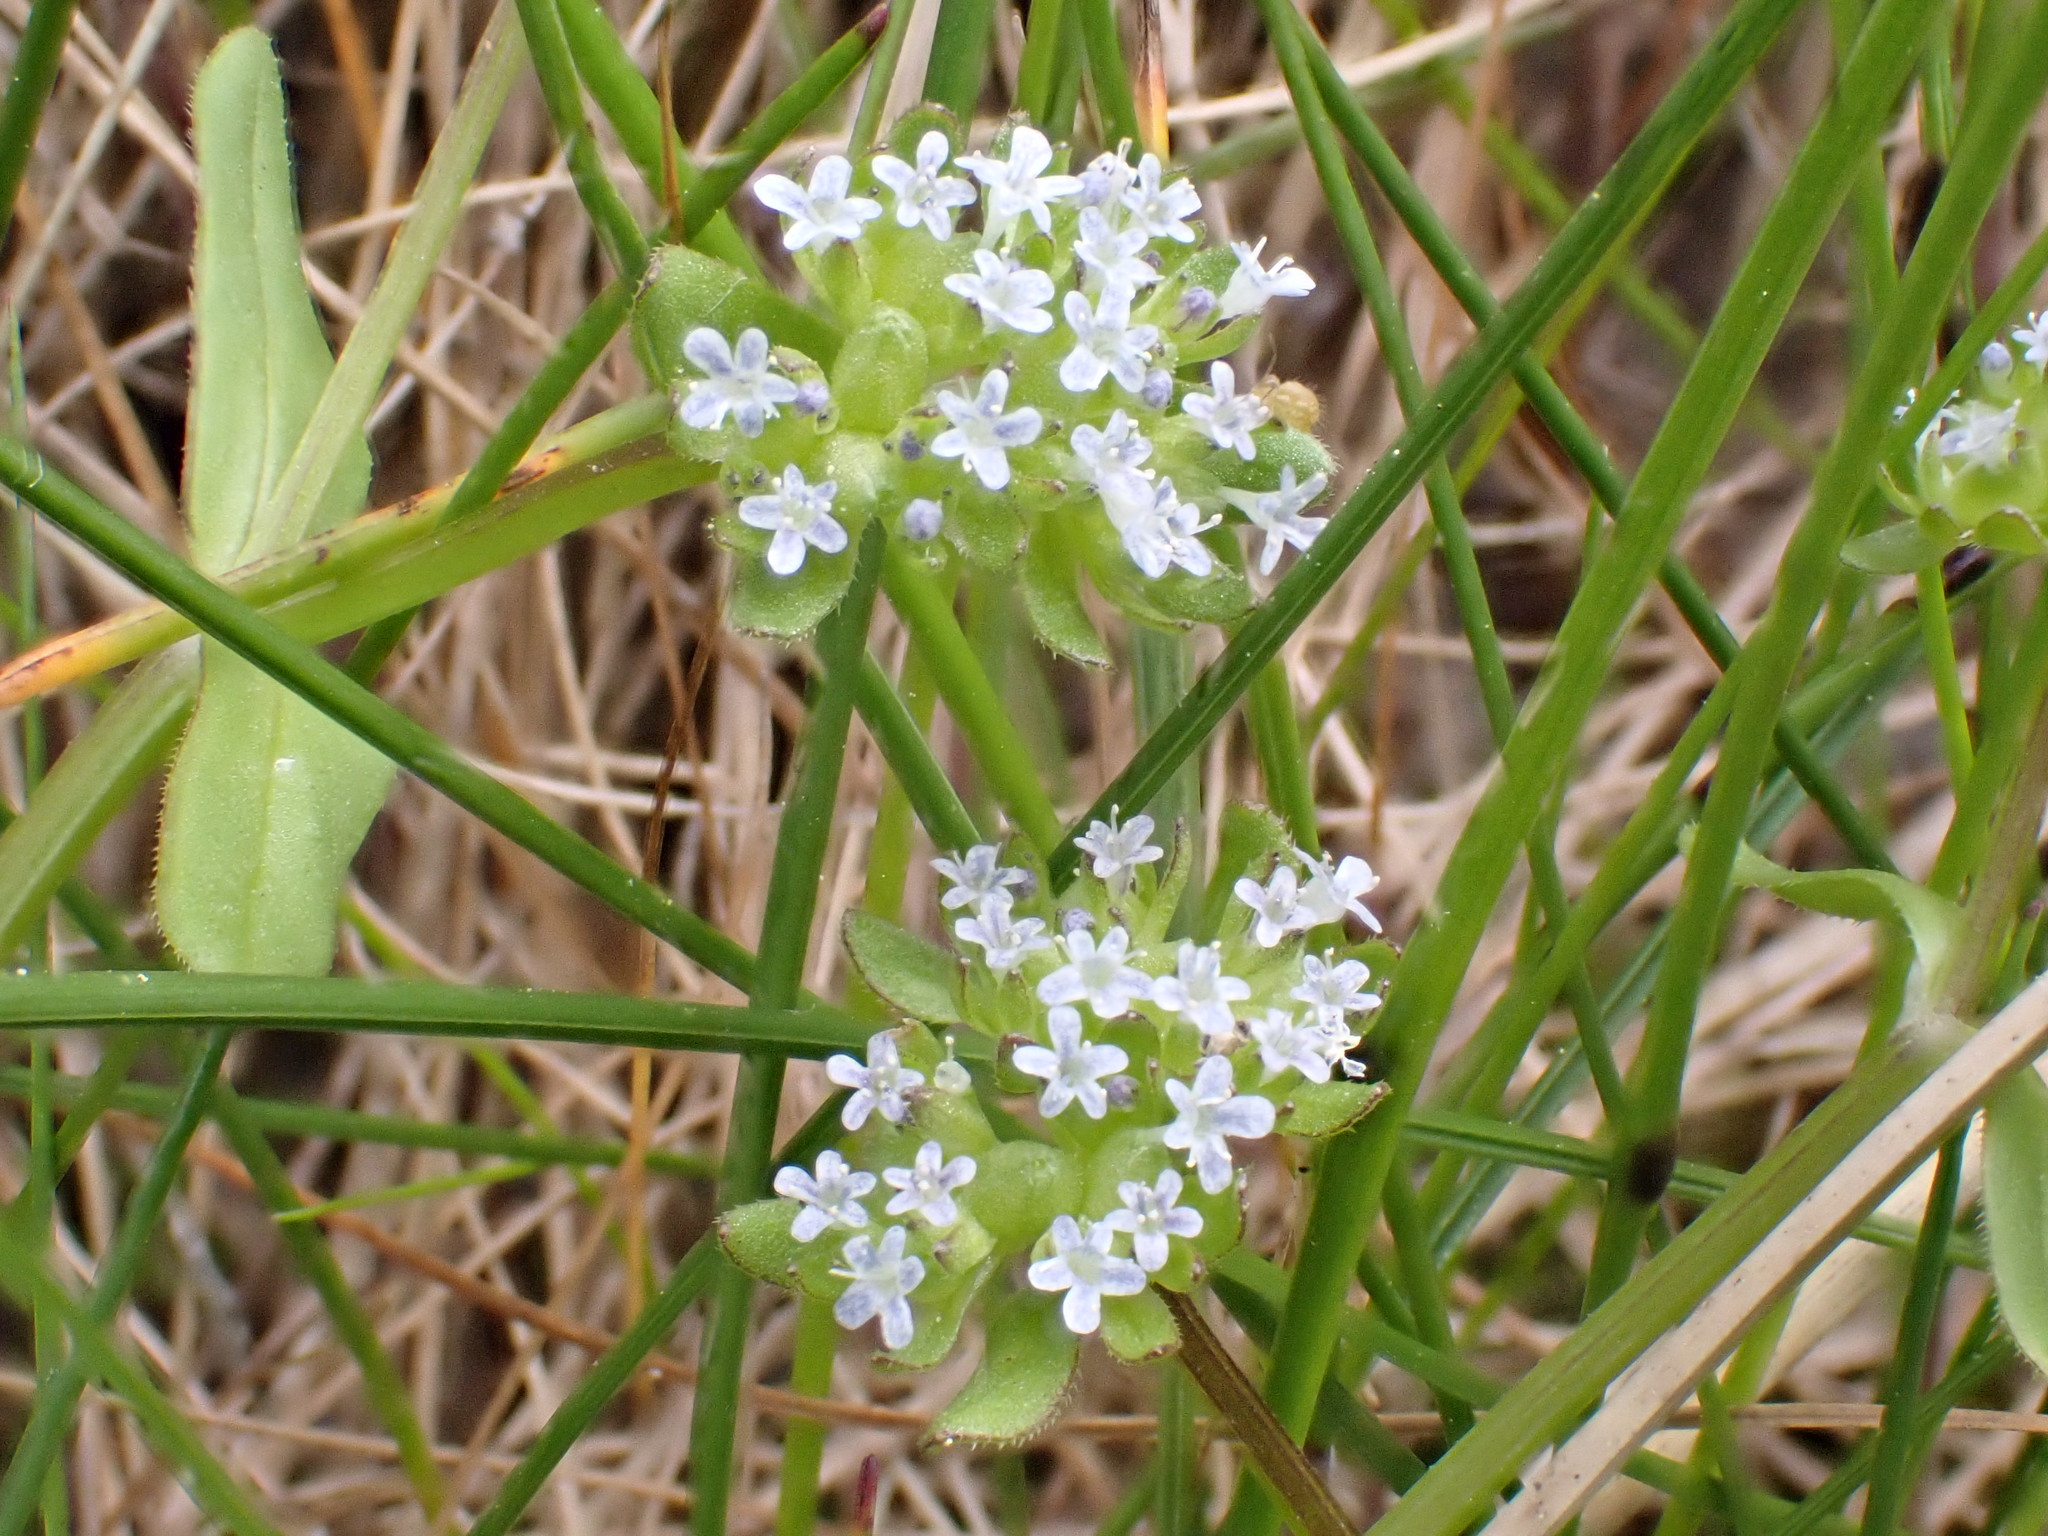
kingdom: Plantae
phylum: Tracheophyta
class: Magnoliopsida
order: Dipsacales
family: Caprifoliaceae
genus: Valerianella
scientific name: Valerianella locusta
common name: Common cornsalad
